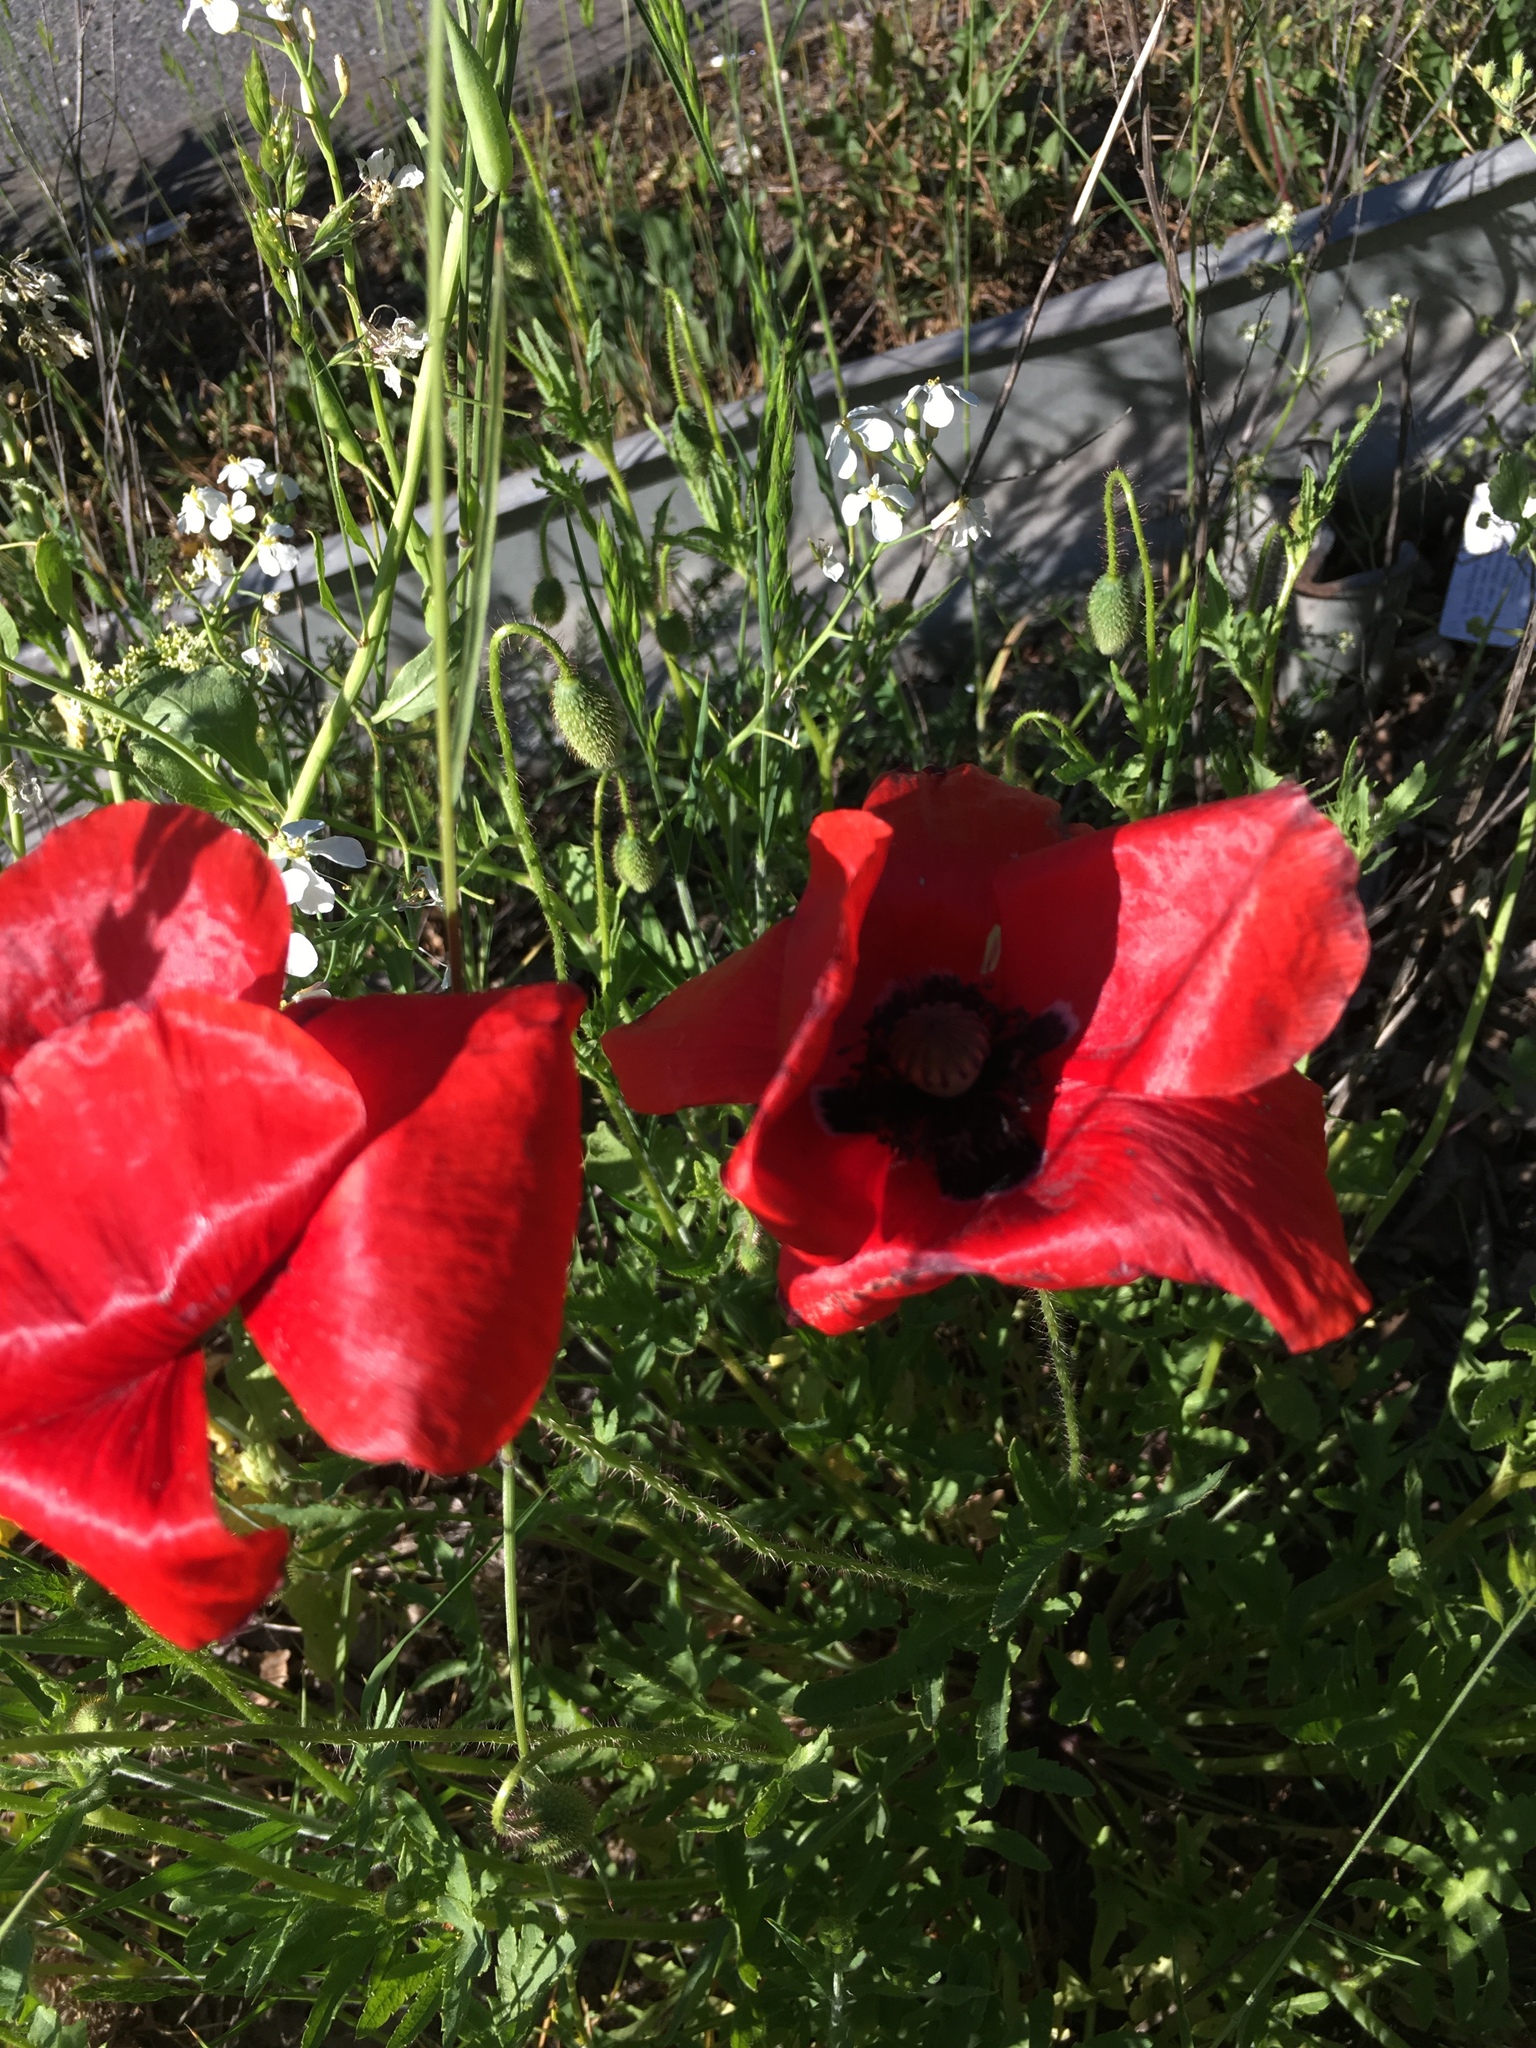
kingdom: Plantae
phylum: Tracheophyta
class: Magnoliopsida
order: Ranunculales
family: Papaveraceae
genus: Papaver
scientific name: Papaver rhoeas
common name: Corn poppy
